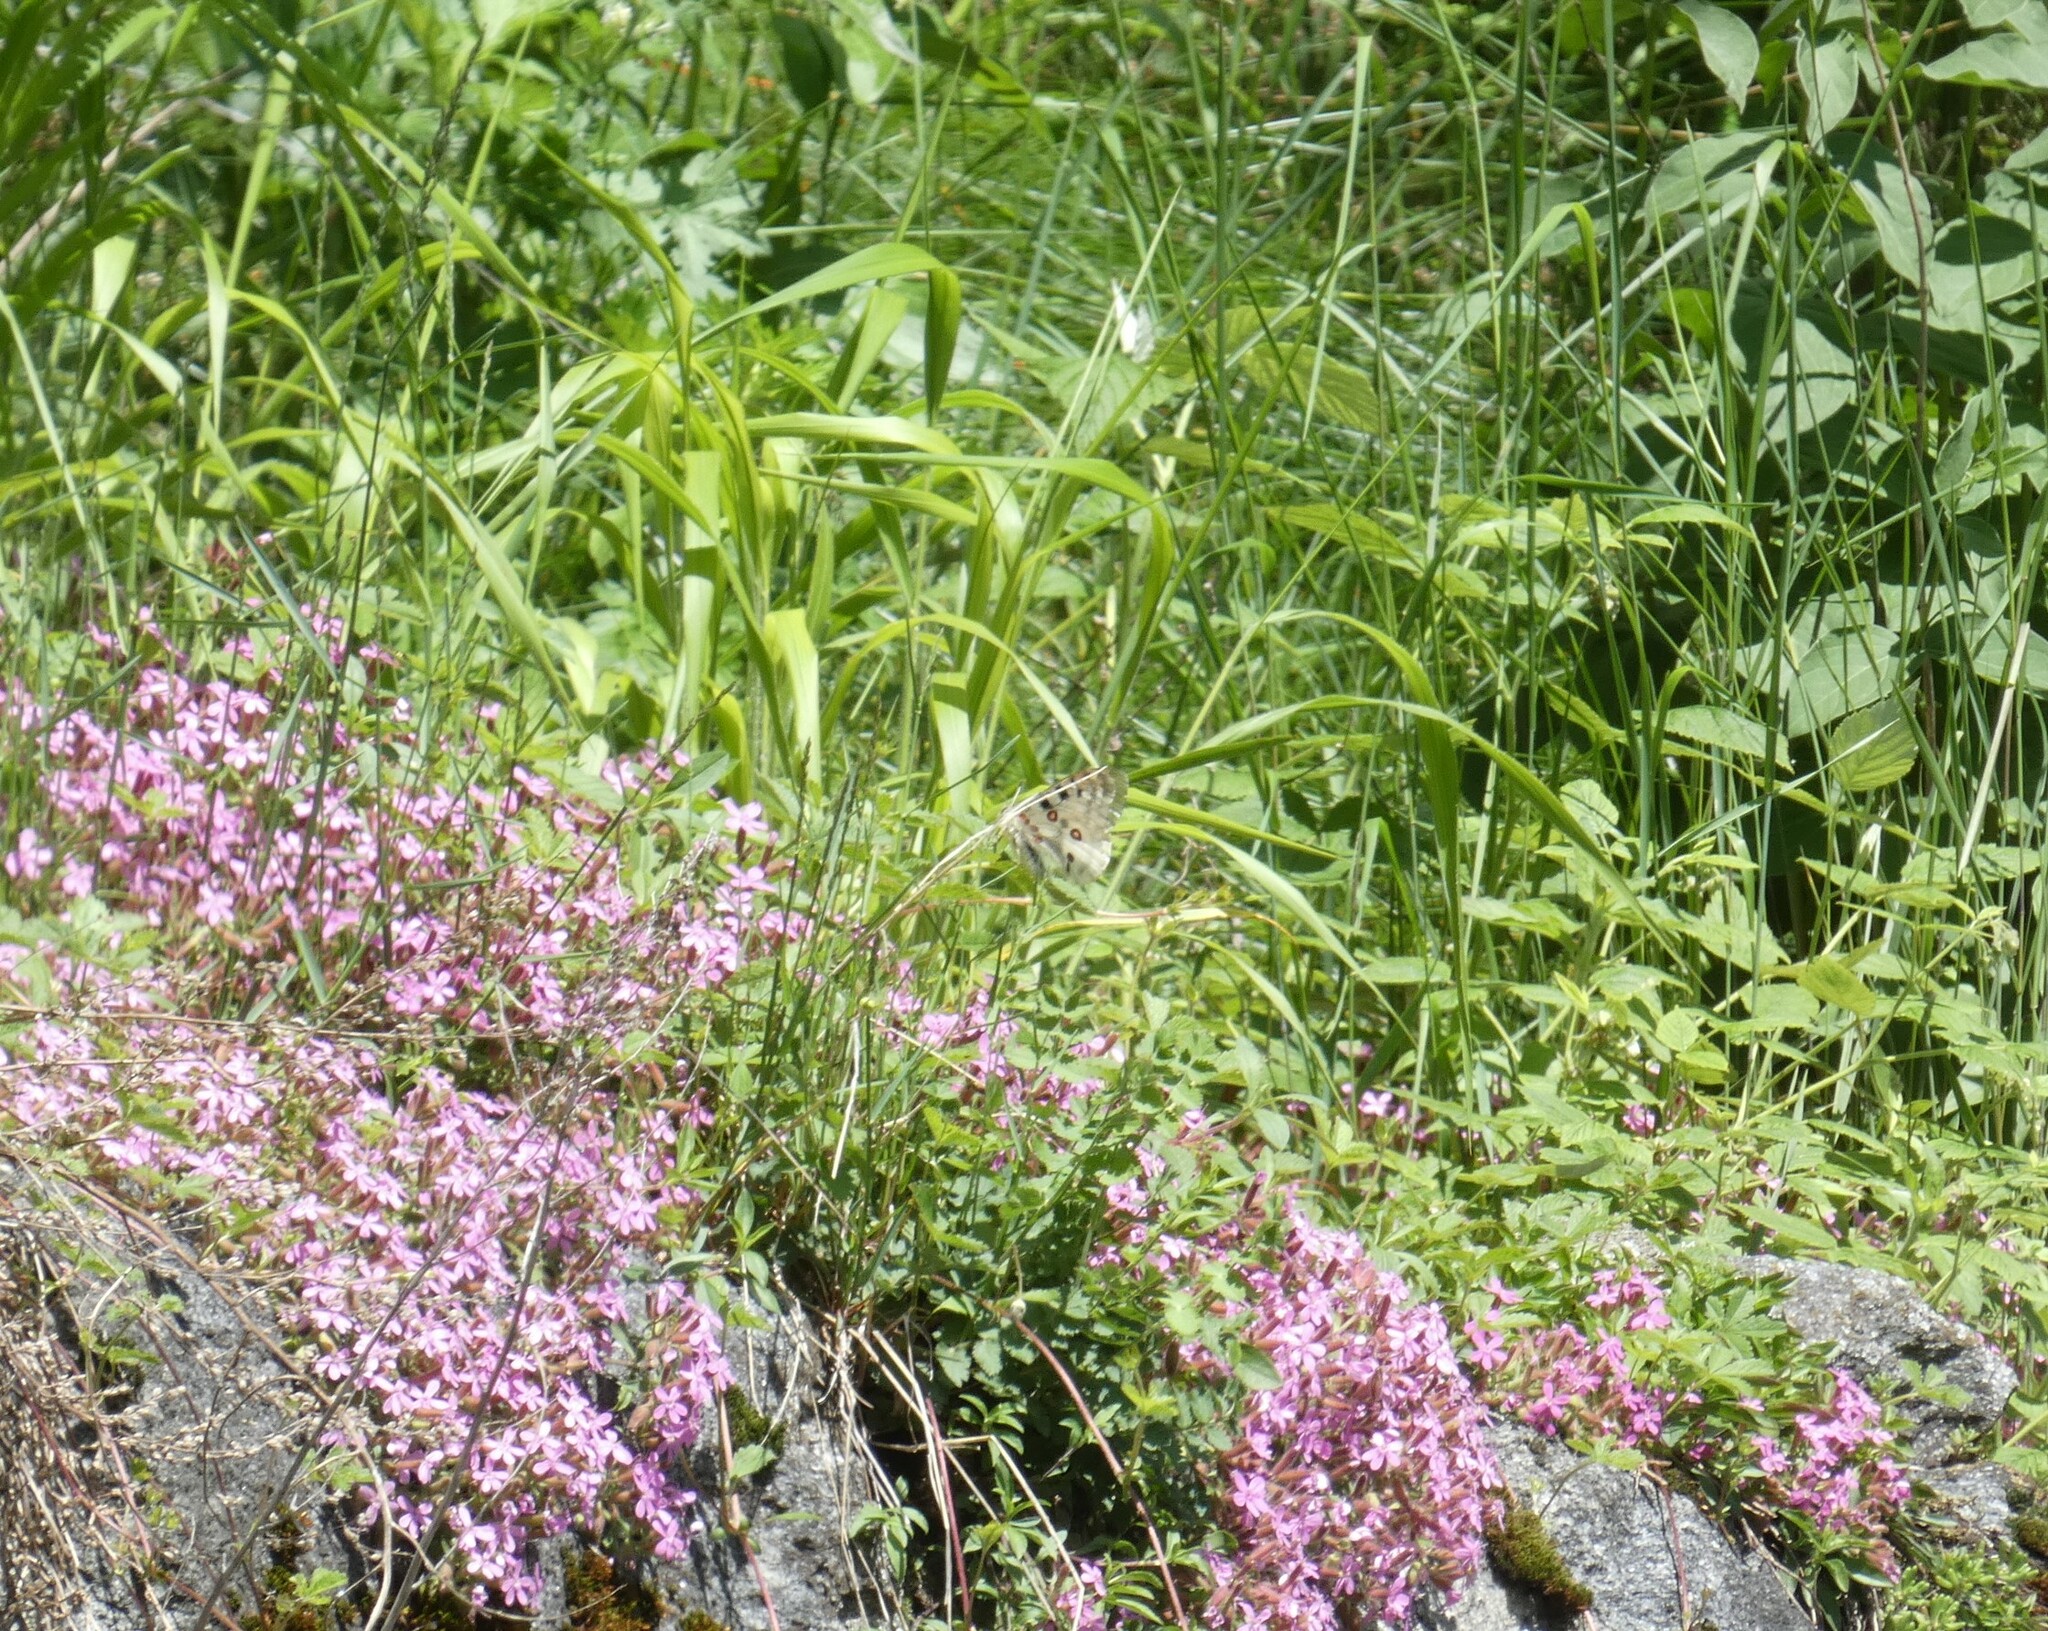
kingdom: Animalia
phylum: Arthropoda
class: Insecta
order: Lepidoptera
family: Papilionidae
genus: Parnassius
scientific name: Parnassius apollo
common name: Apollo
